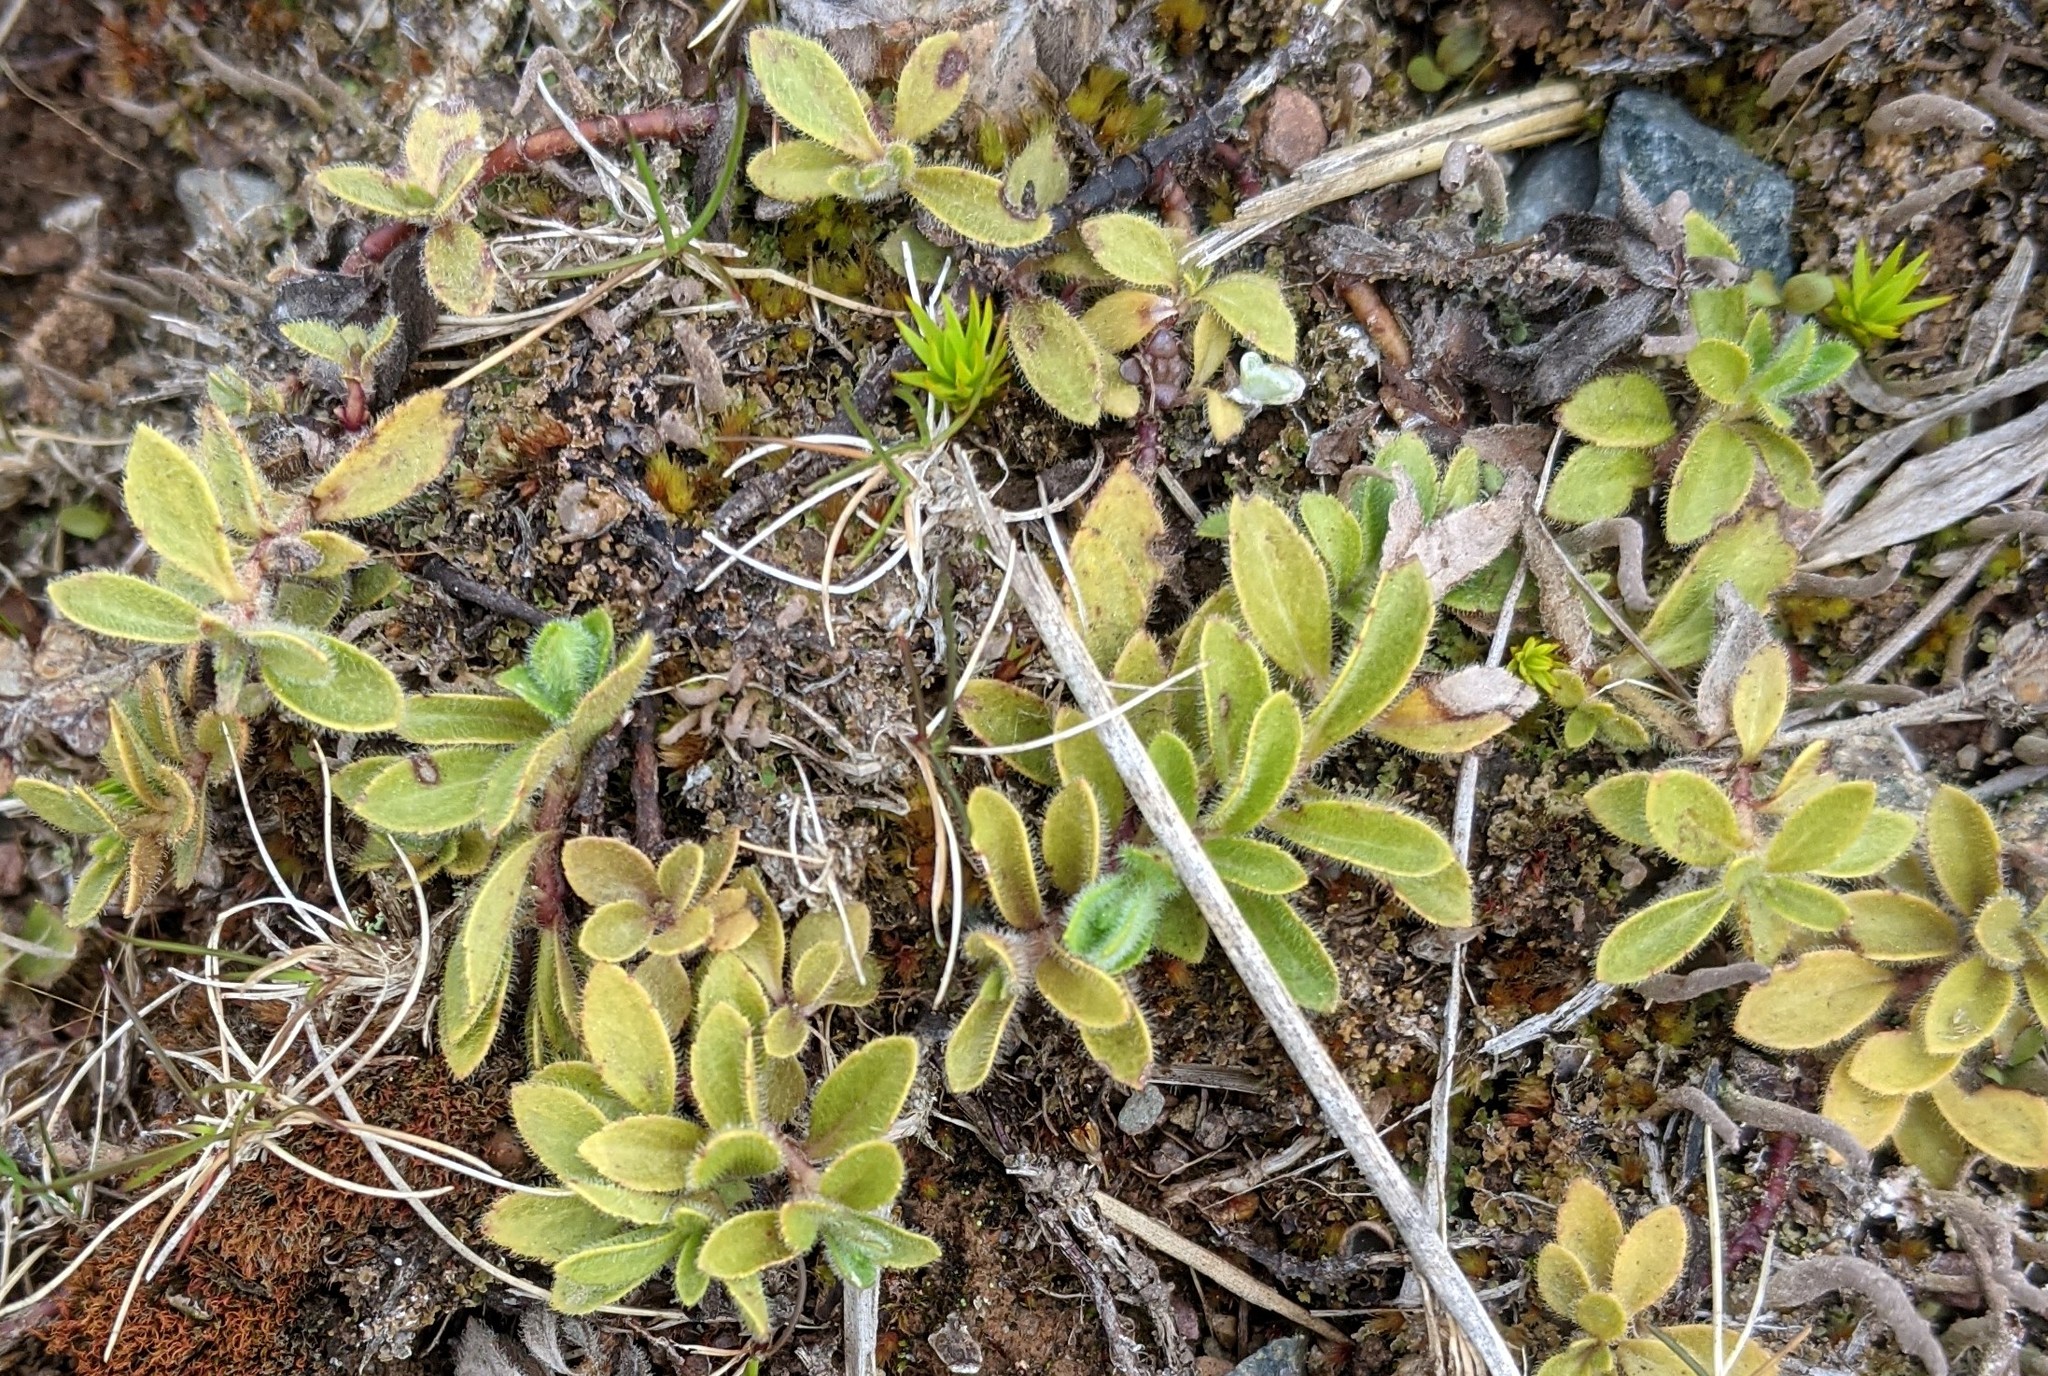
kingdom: Plantae
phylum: Tracheophyta
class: Magnoliopsida
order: Lamiales
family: Plantaginaceae
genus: Veronica
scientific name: Veronica officinalis
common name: Common speedwell
